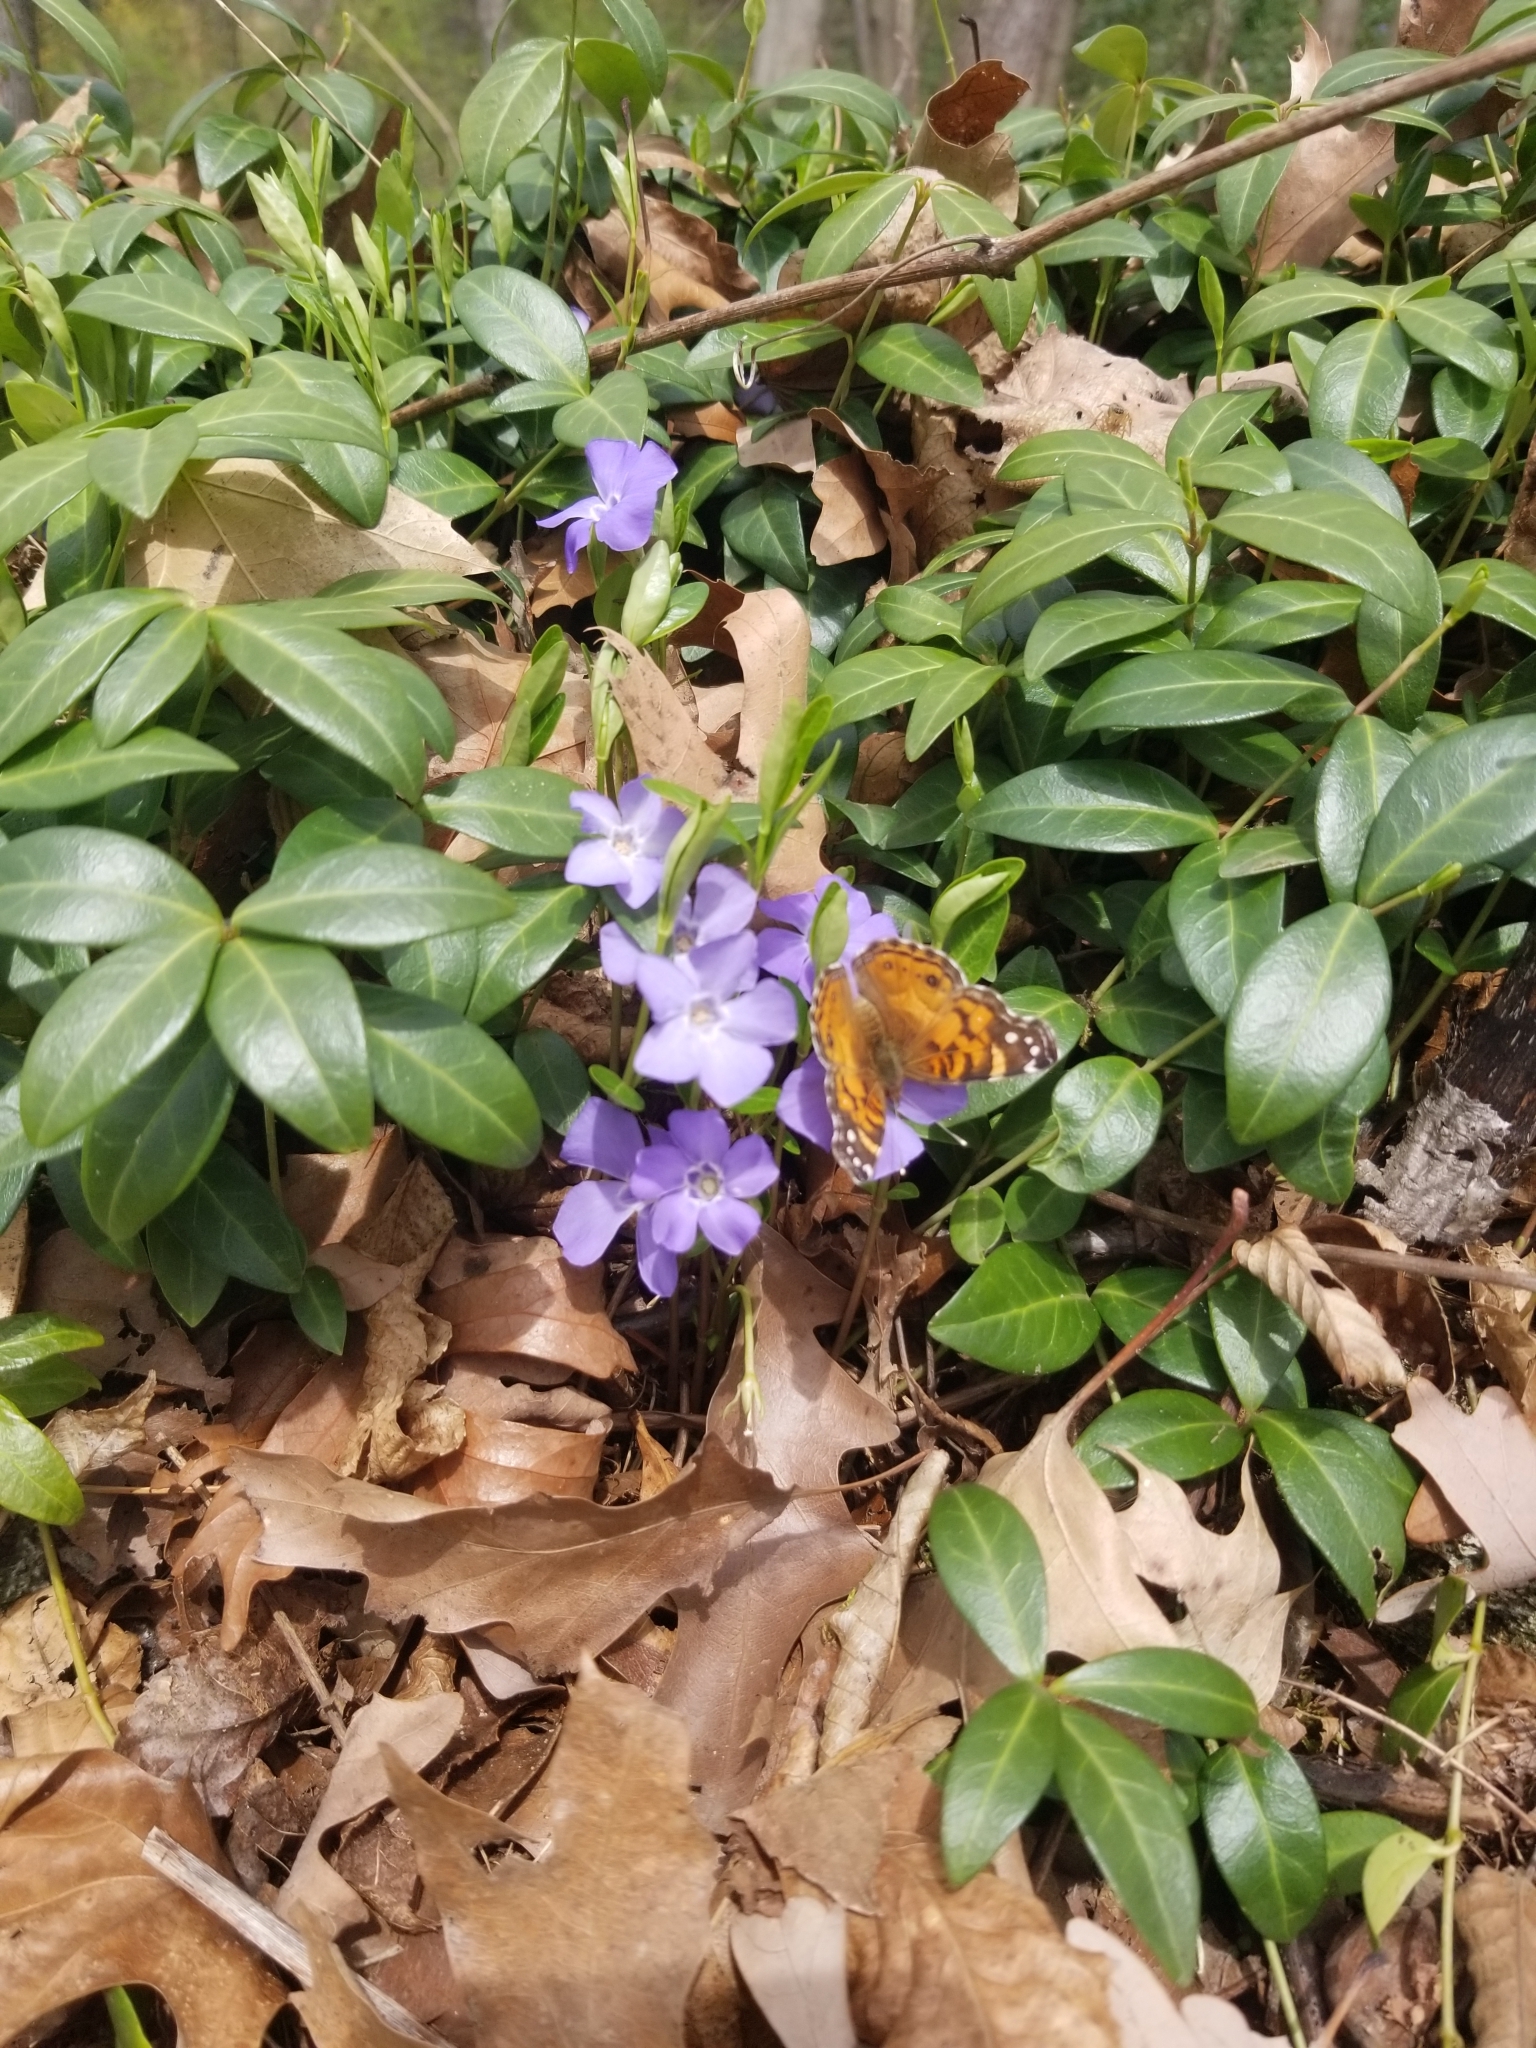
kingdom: Animalia
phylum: Arthropoda
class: Insecta
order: Lepidoptera
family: Nymphalidae
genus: Vanessa
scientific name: Vanessa virginiensis
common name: American lady
